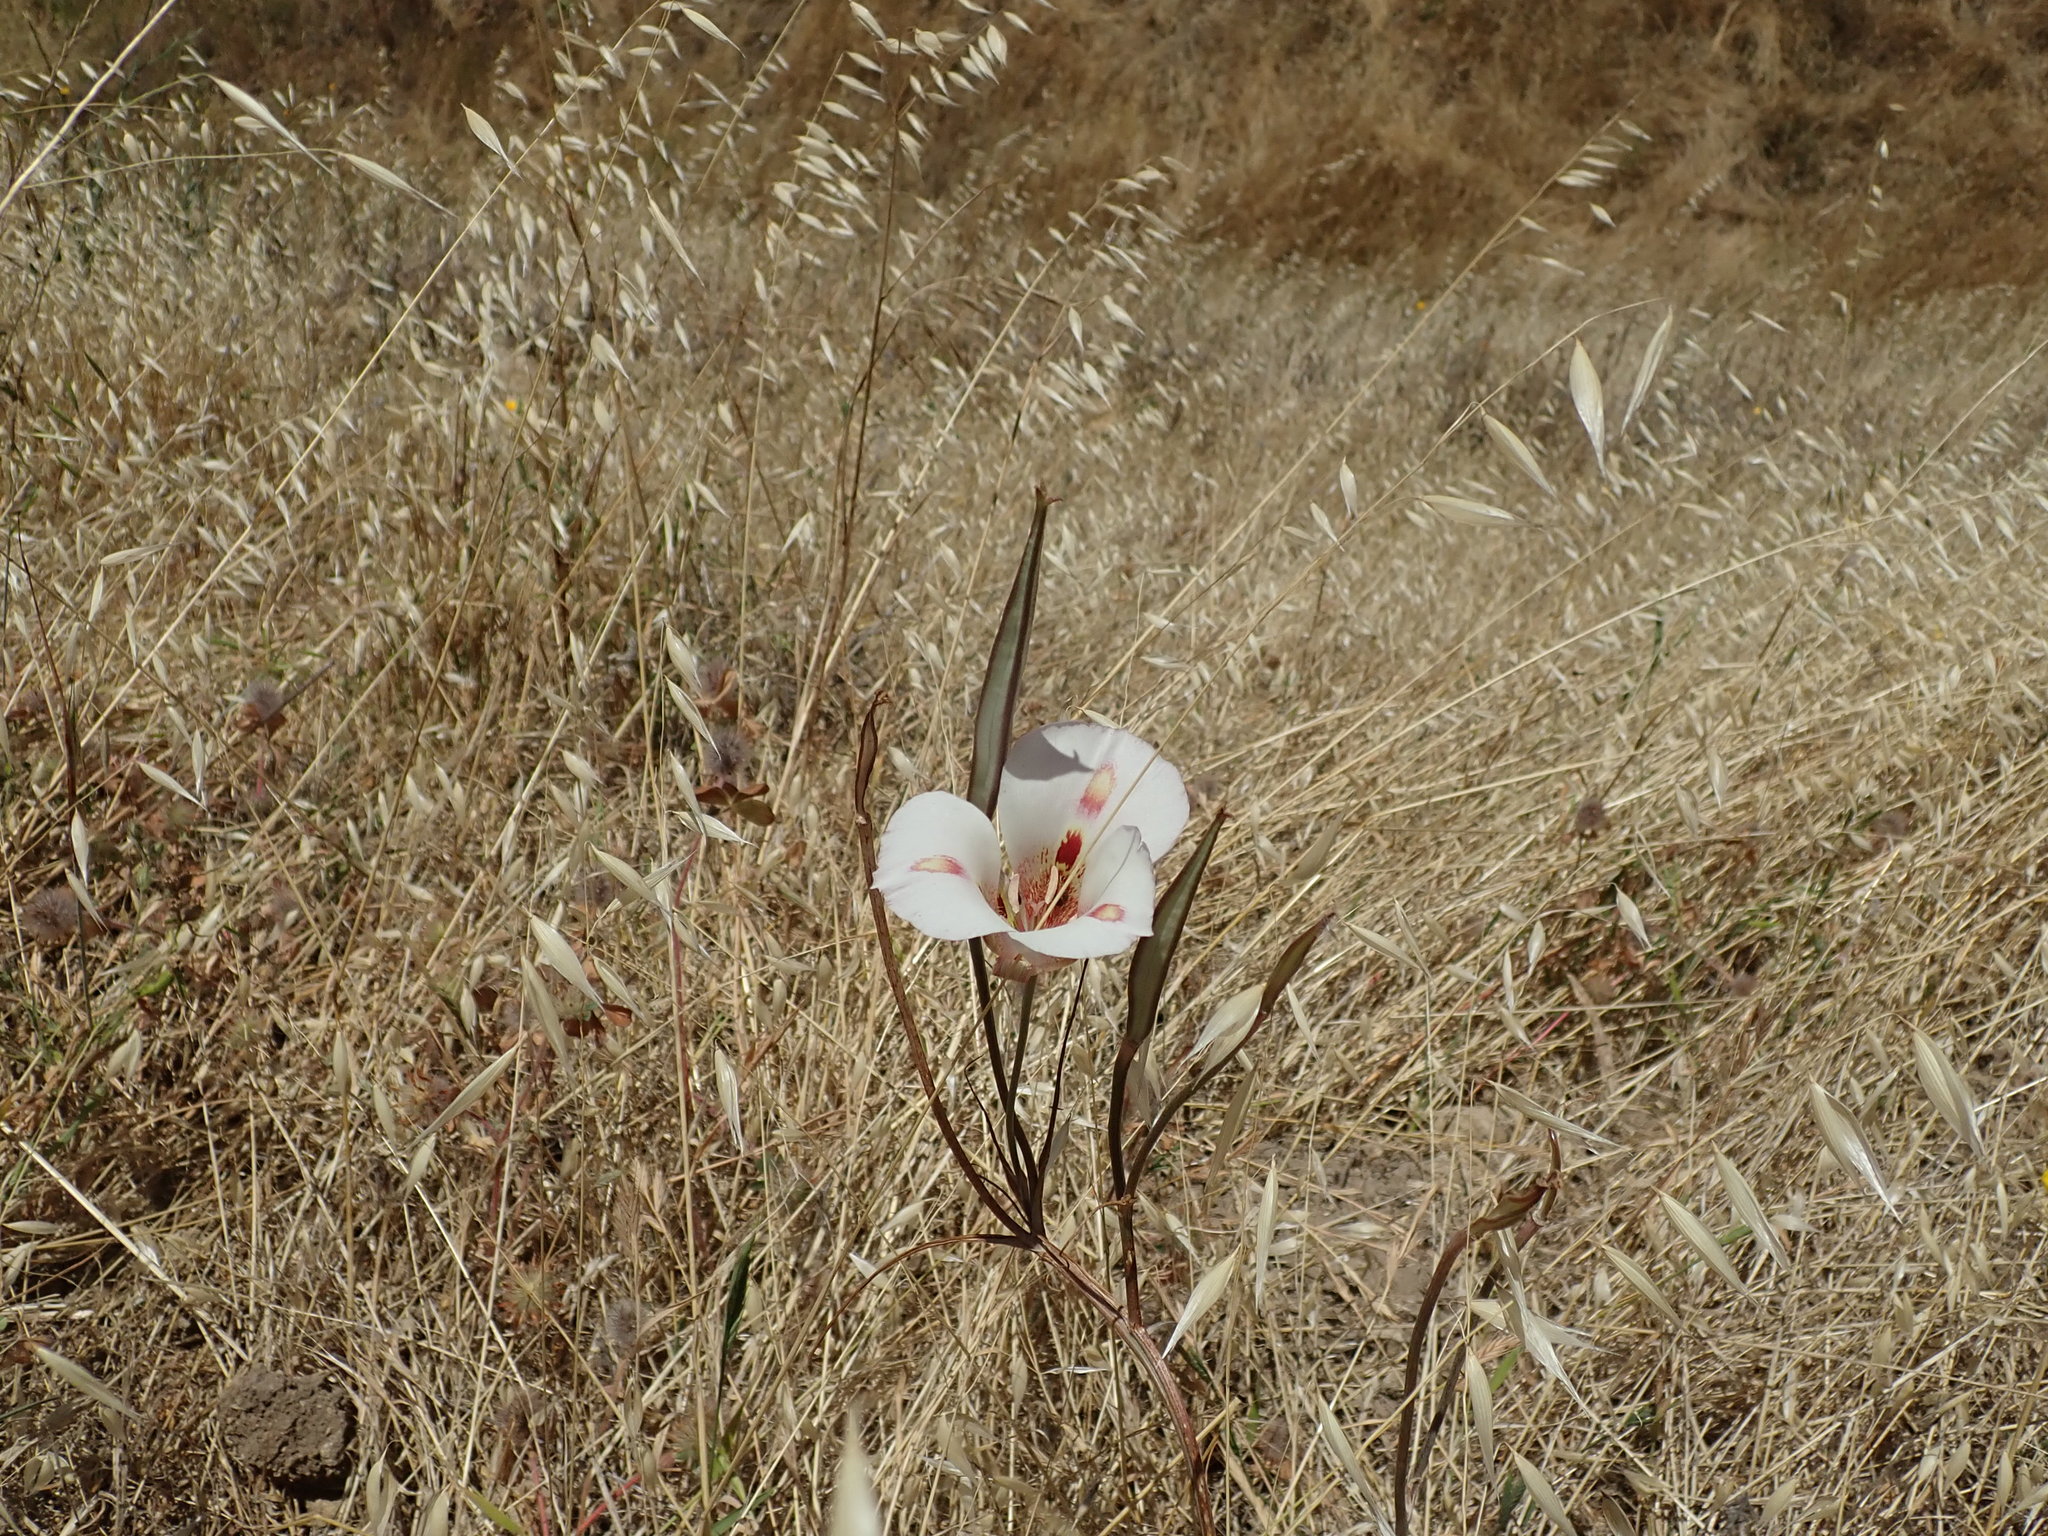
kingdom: Plantae
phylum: Tracheophyta
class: Liliopsida
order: Liliales
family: Liliaceae
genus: Calochortus
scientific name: Calochortus venustus
